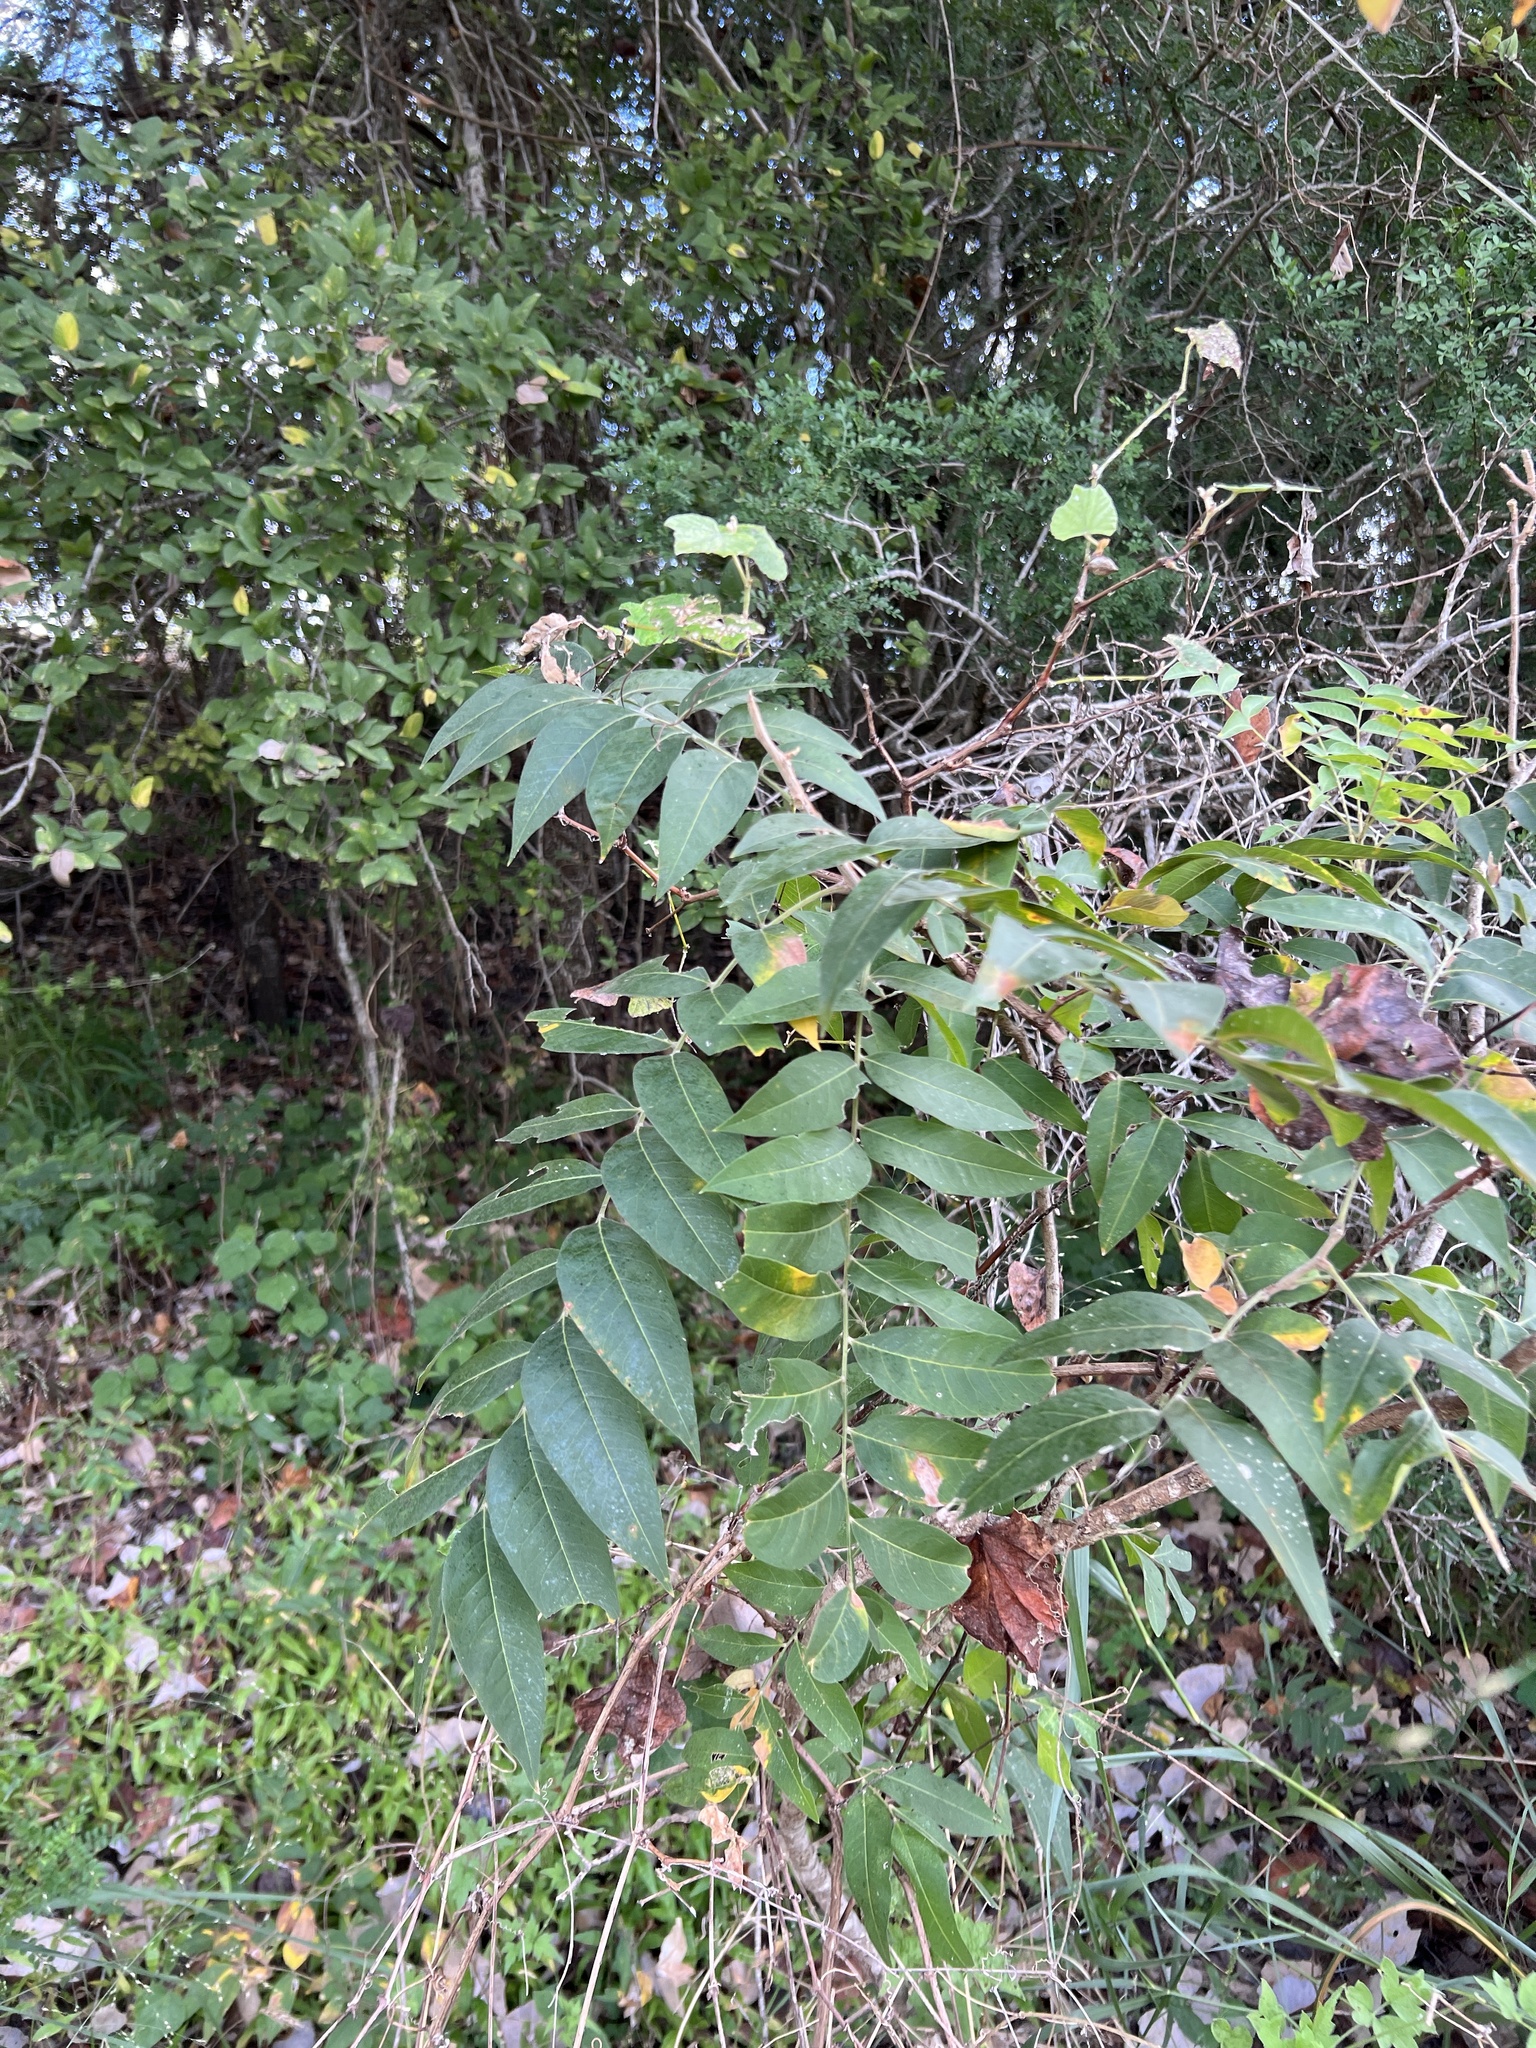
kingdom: Plantae
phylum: Tracheophyta
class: Magnoliopsida
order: Sapindales
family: Sapindaceae
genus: Sapindus
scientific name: Sapindus drummondii
